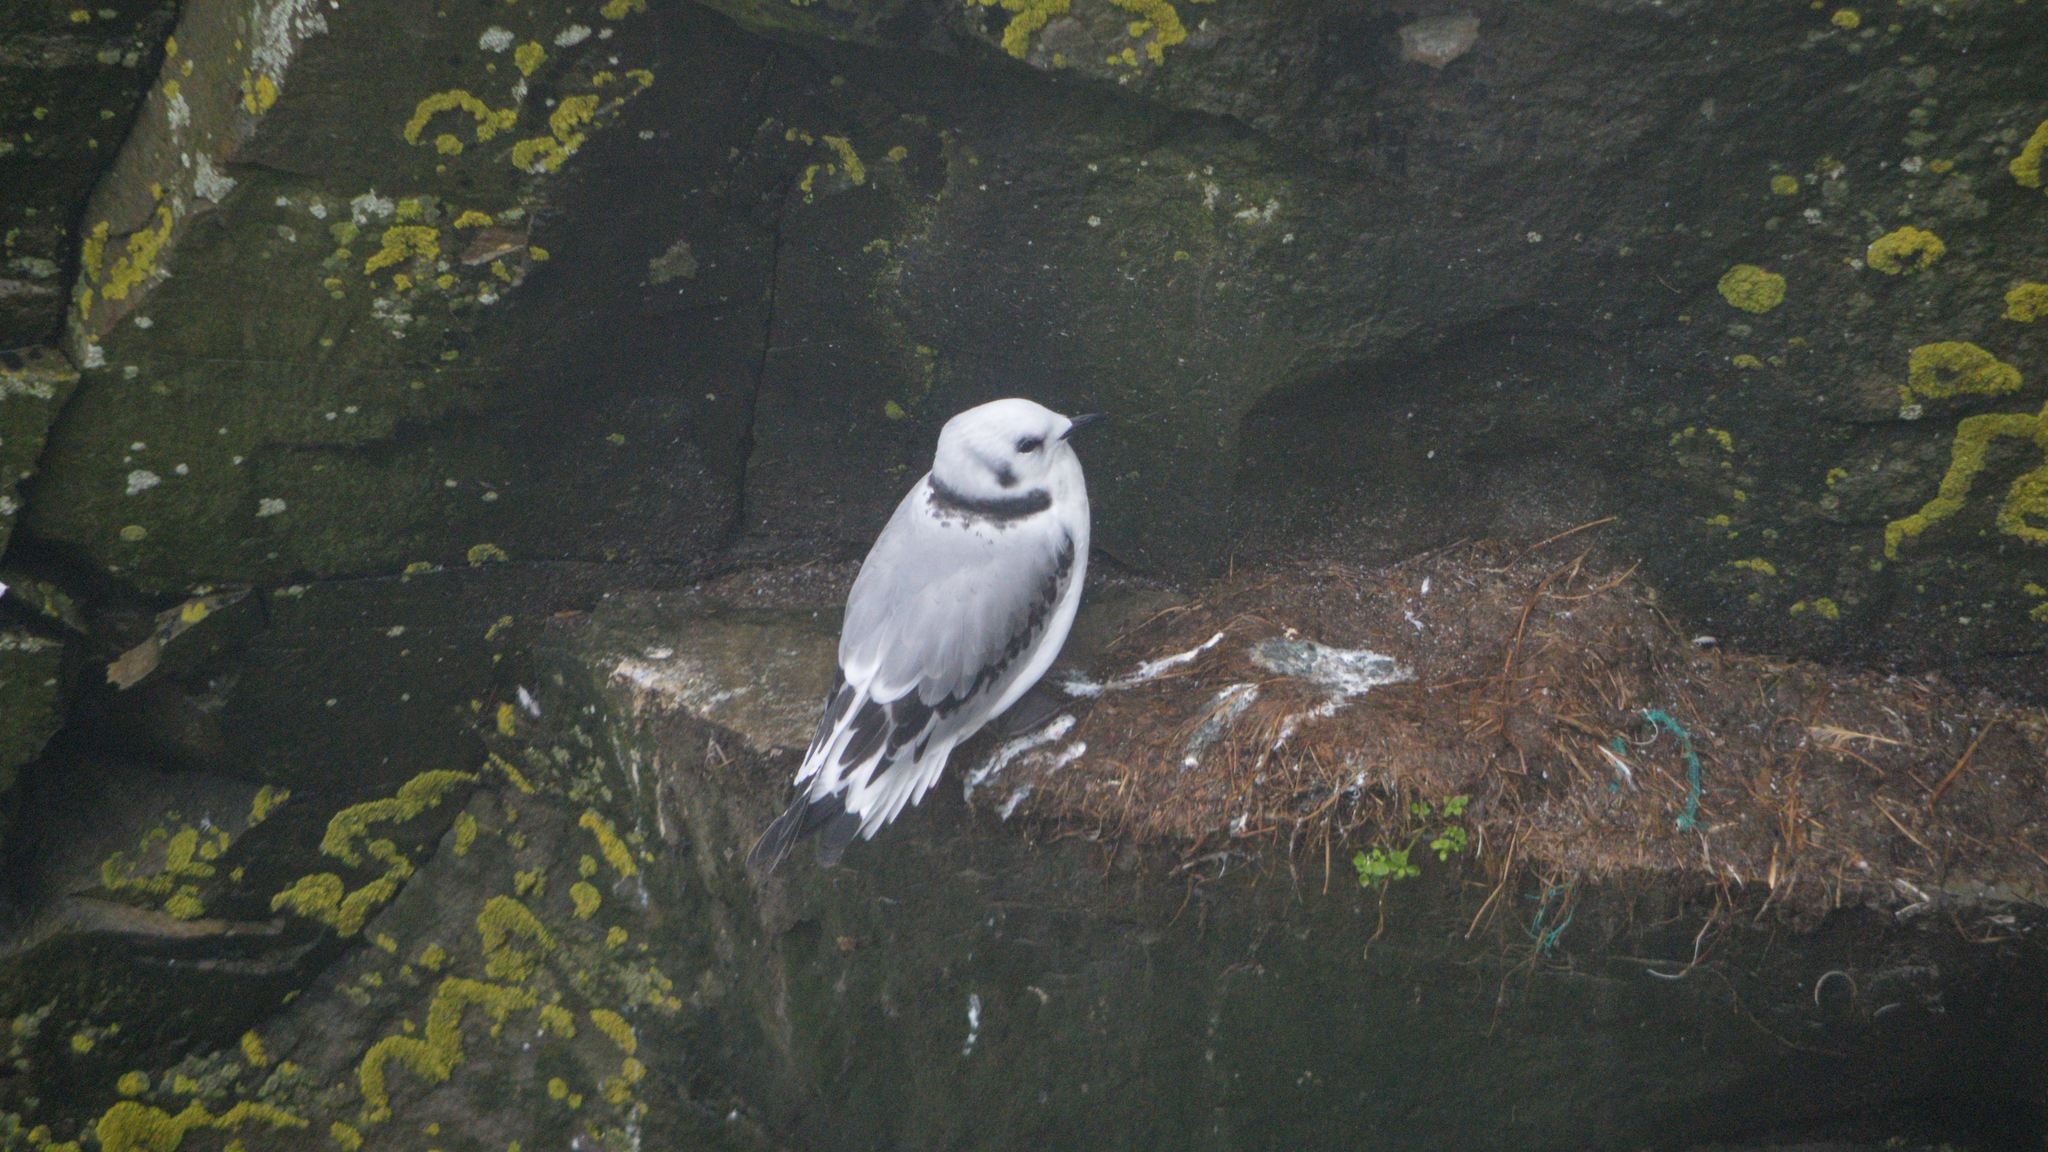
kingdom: Animalia
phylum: Chordata
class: Aves
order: Charadriiformes
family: Laridae
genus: Rissa
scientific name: Rissa tridactyla
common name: Black-legged kittiwake
